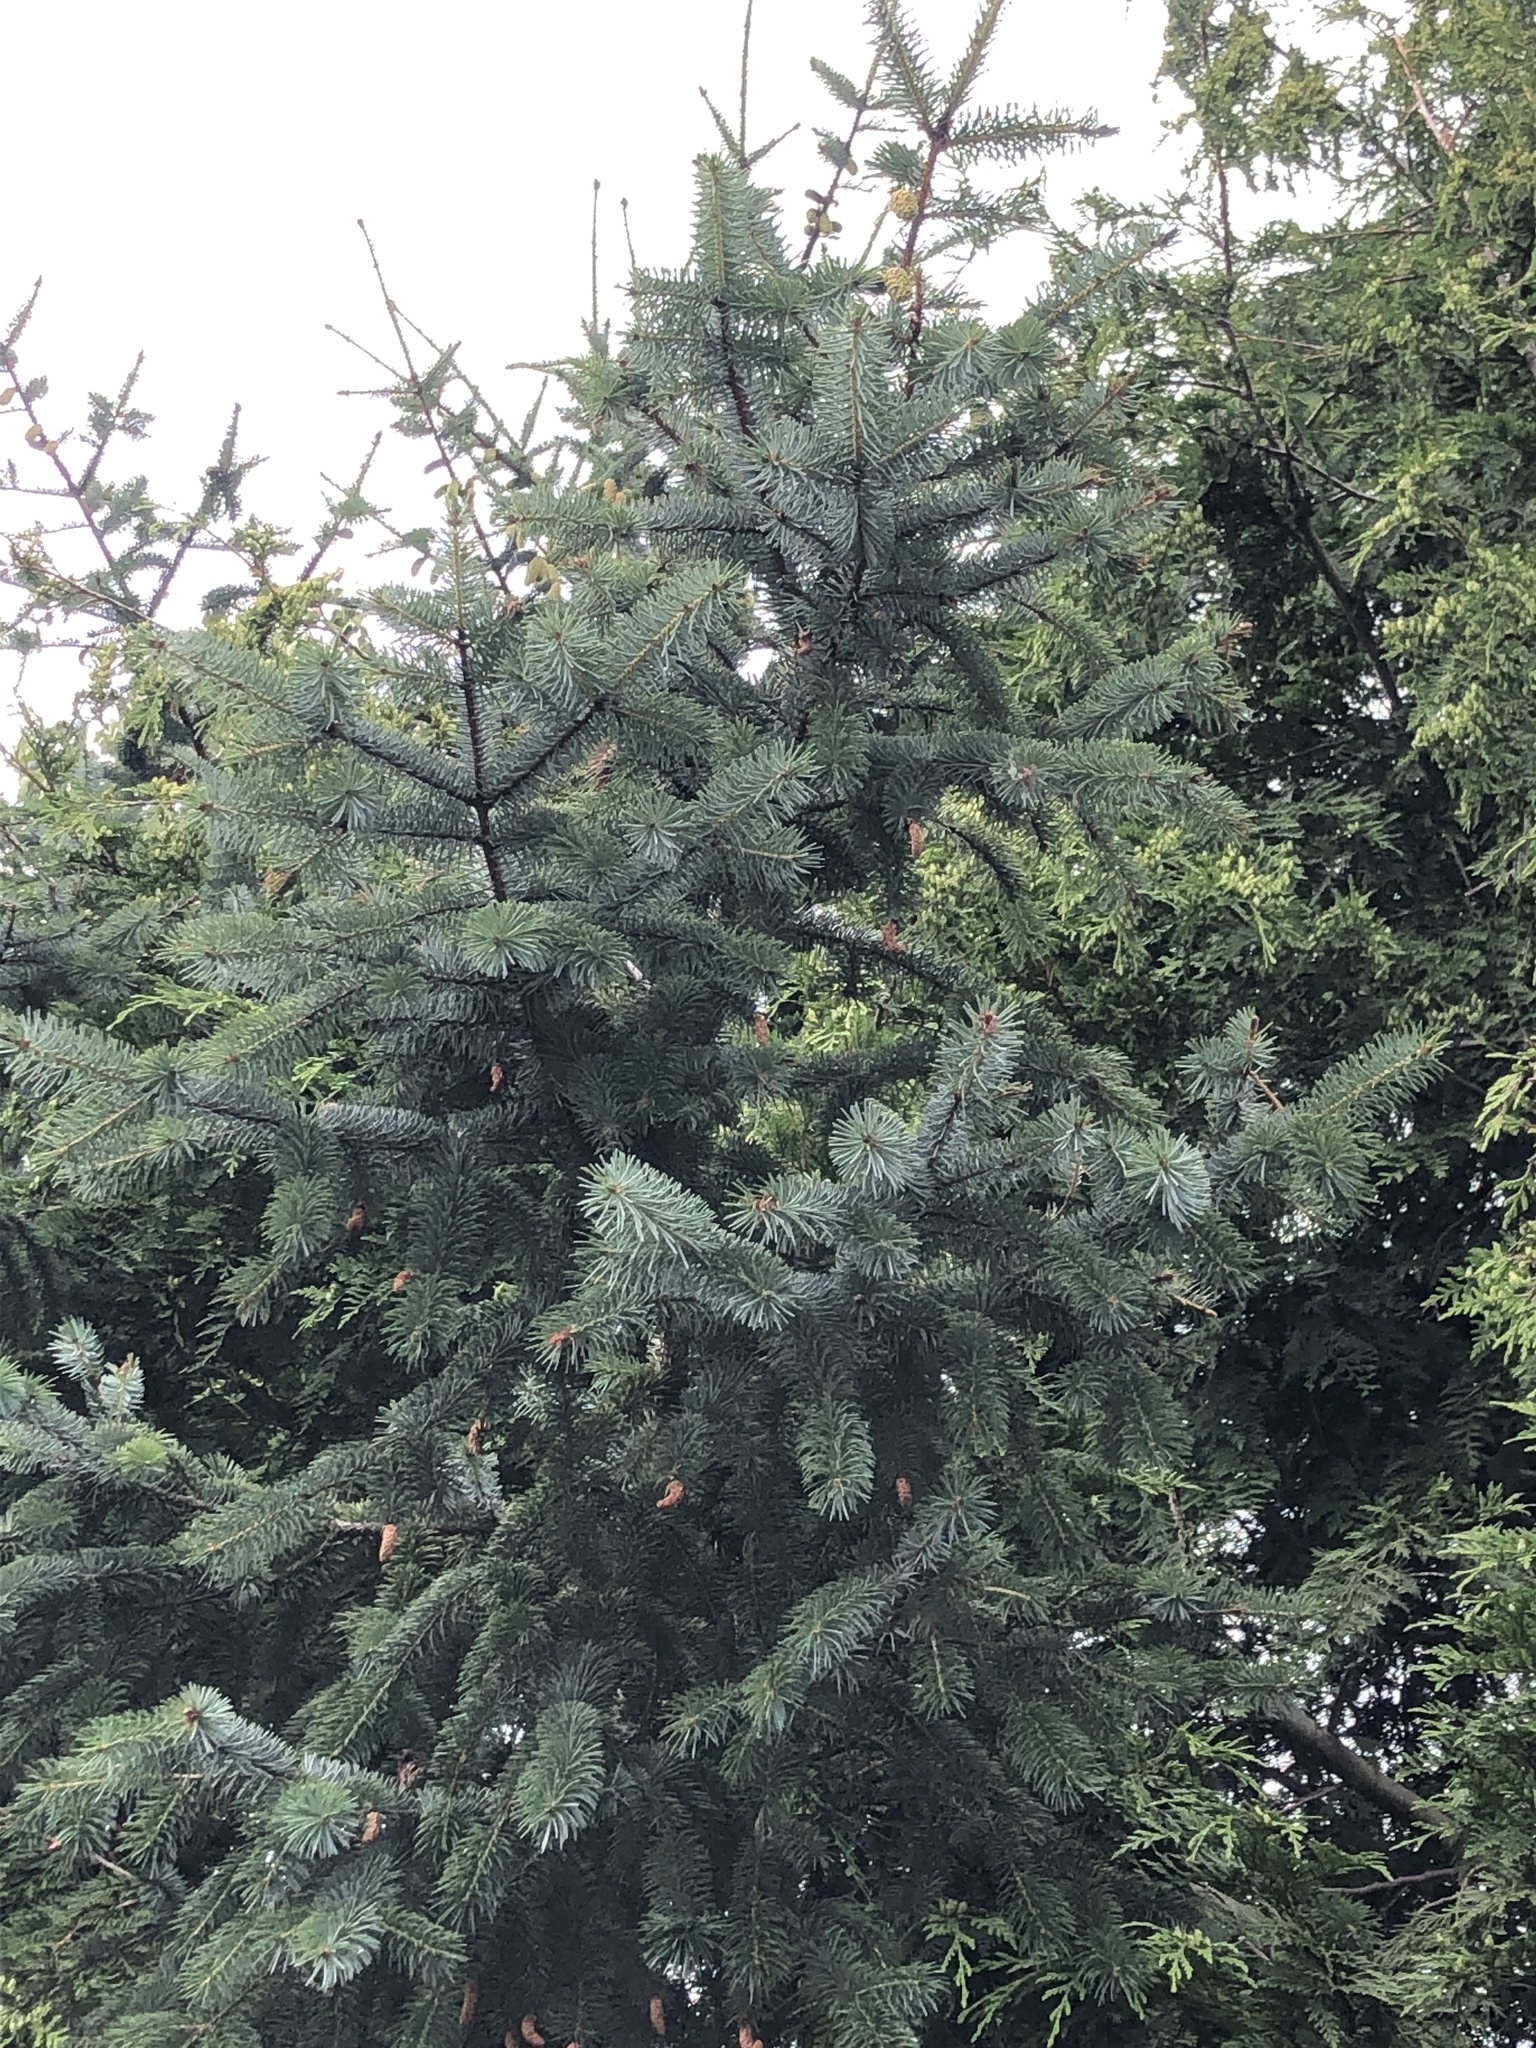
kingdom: Plantae
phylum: Tracheophyta
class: Pinopsida
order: Pinales
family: Pinaceae
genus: Picea
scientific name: Picea sitchensis
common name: Sitka spruce
